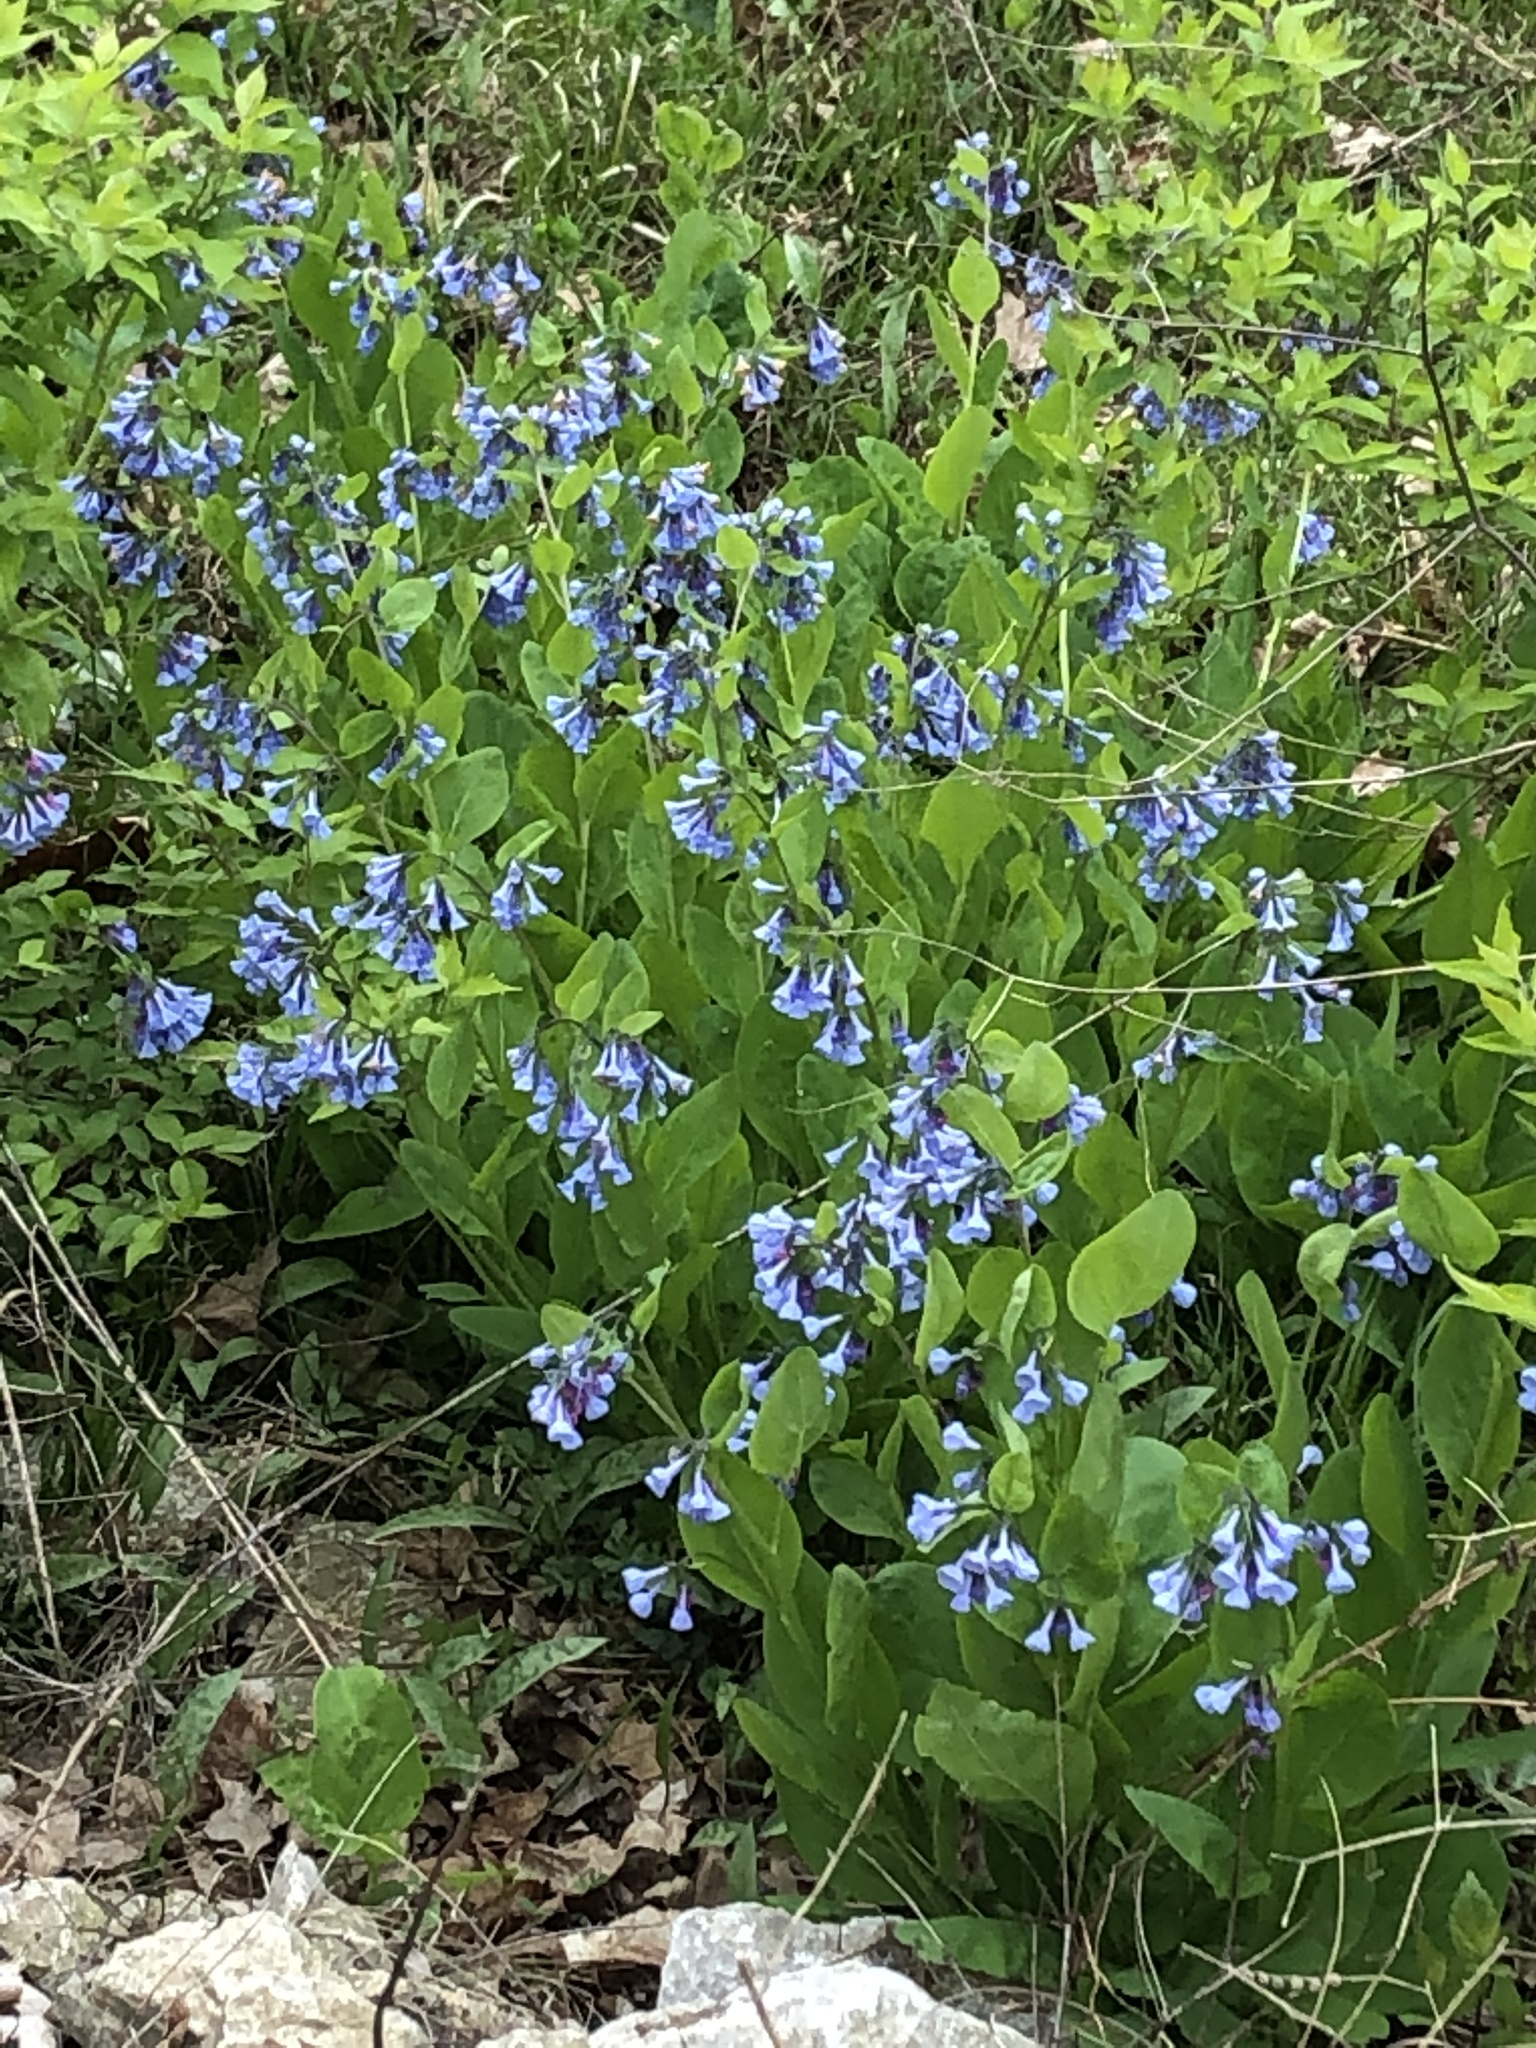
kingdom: Plantae
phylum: Tracheophyta
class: Magnoliopsida
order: Boraginales
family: Boraginaceae
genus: Mertensia
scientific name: Mertensia virginica
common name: Virginia bluebells
